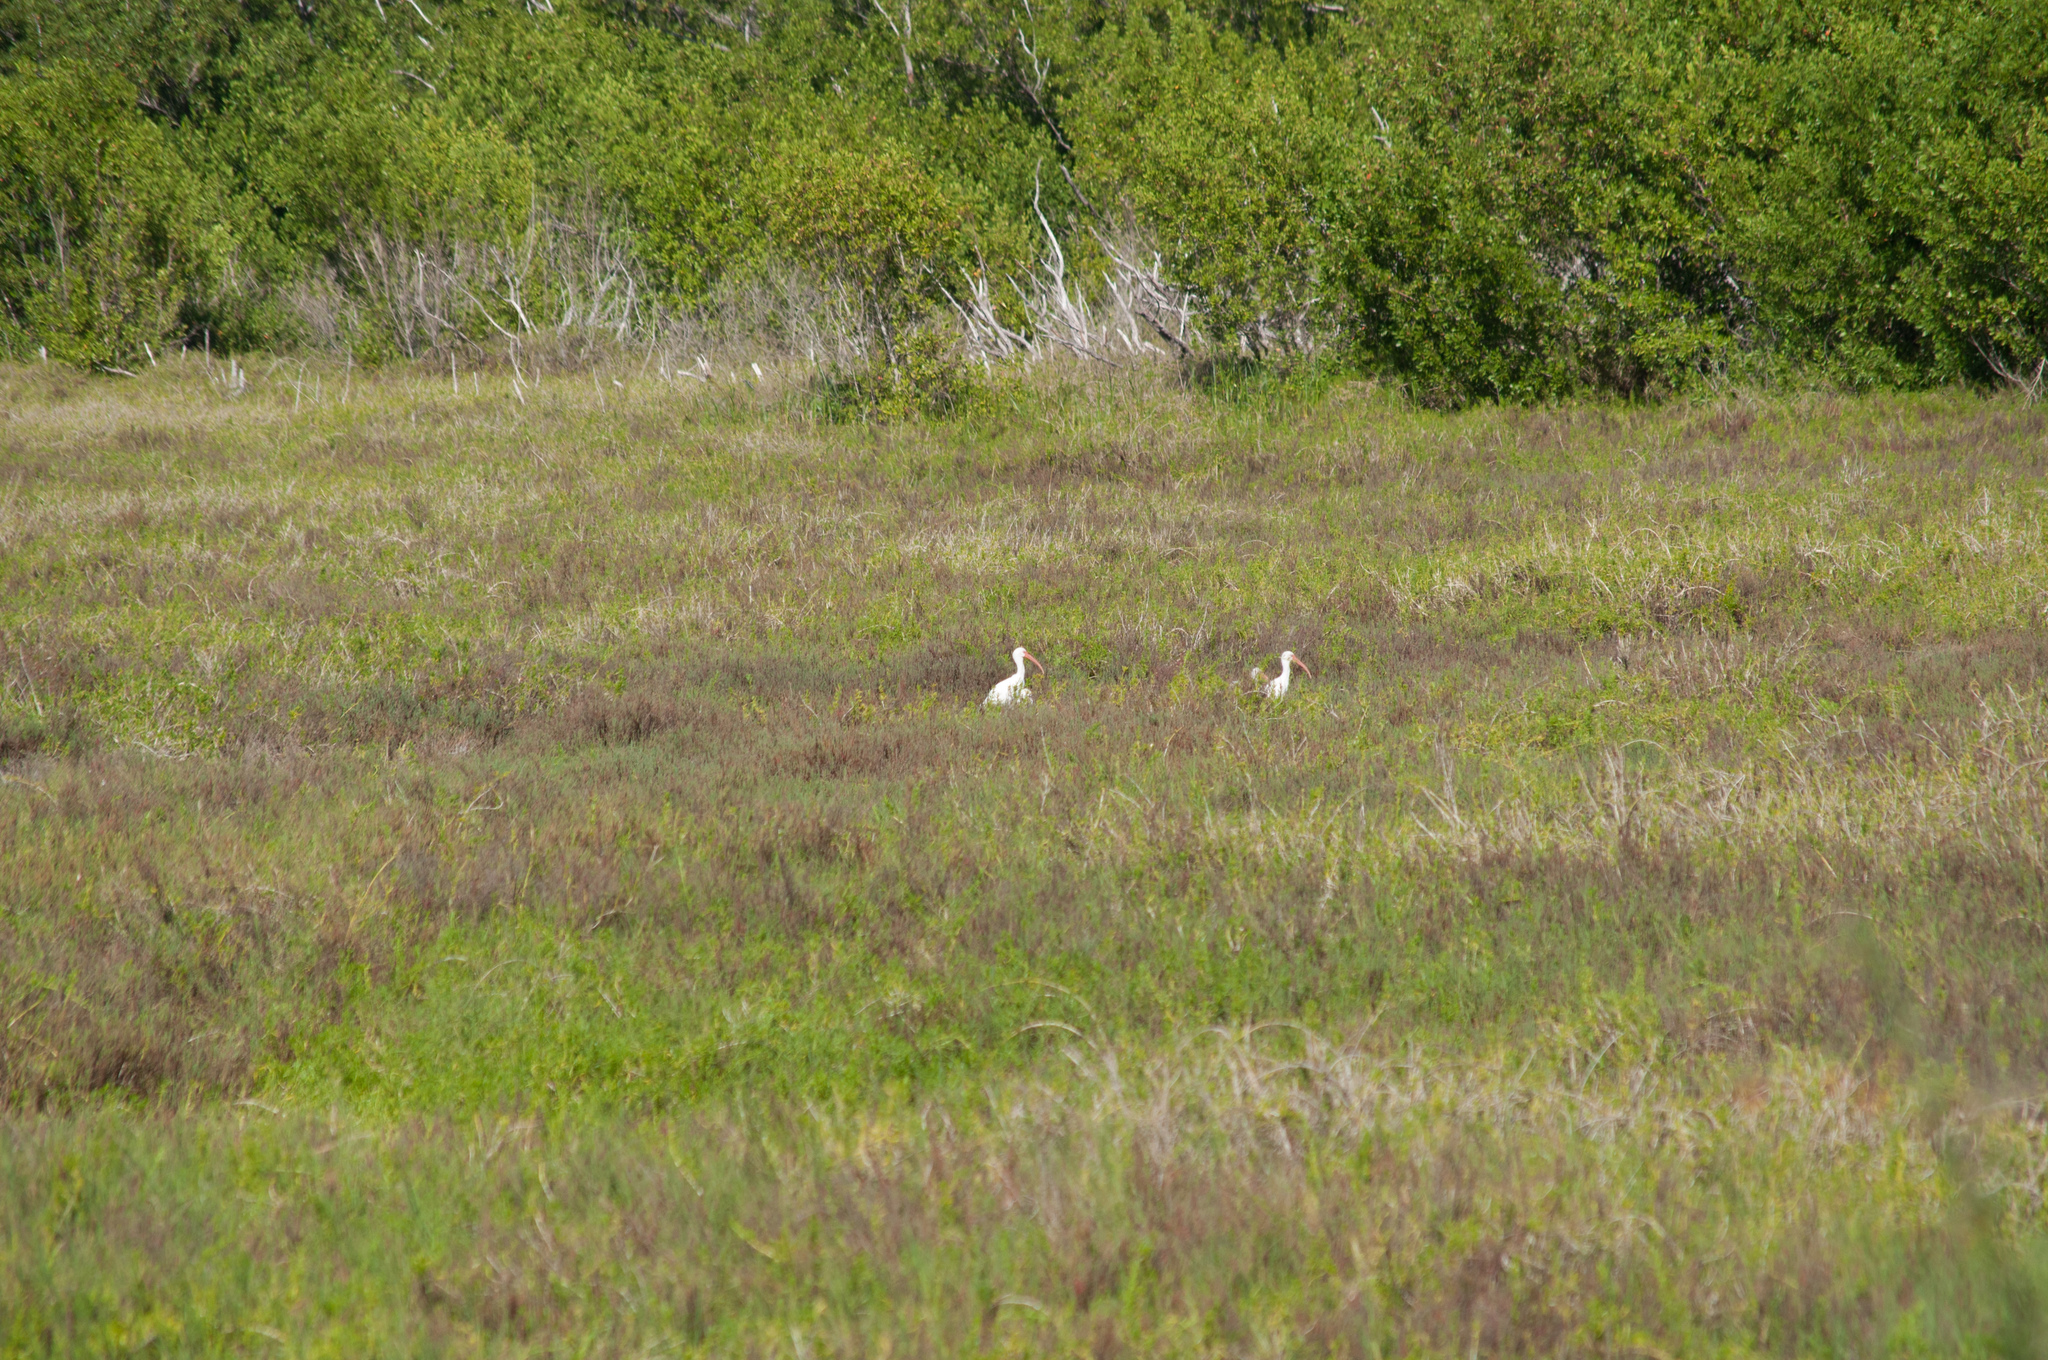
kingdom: Animalia
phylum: Chordata
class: Aves
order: Pelecaniformes
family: Threskiornithidae
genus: Eudocimus
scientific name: Eudocimus albus
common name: White ibis
